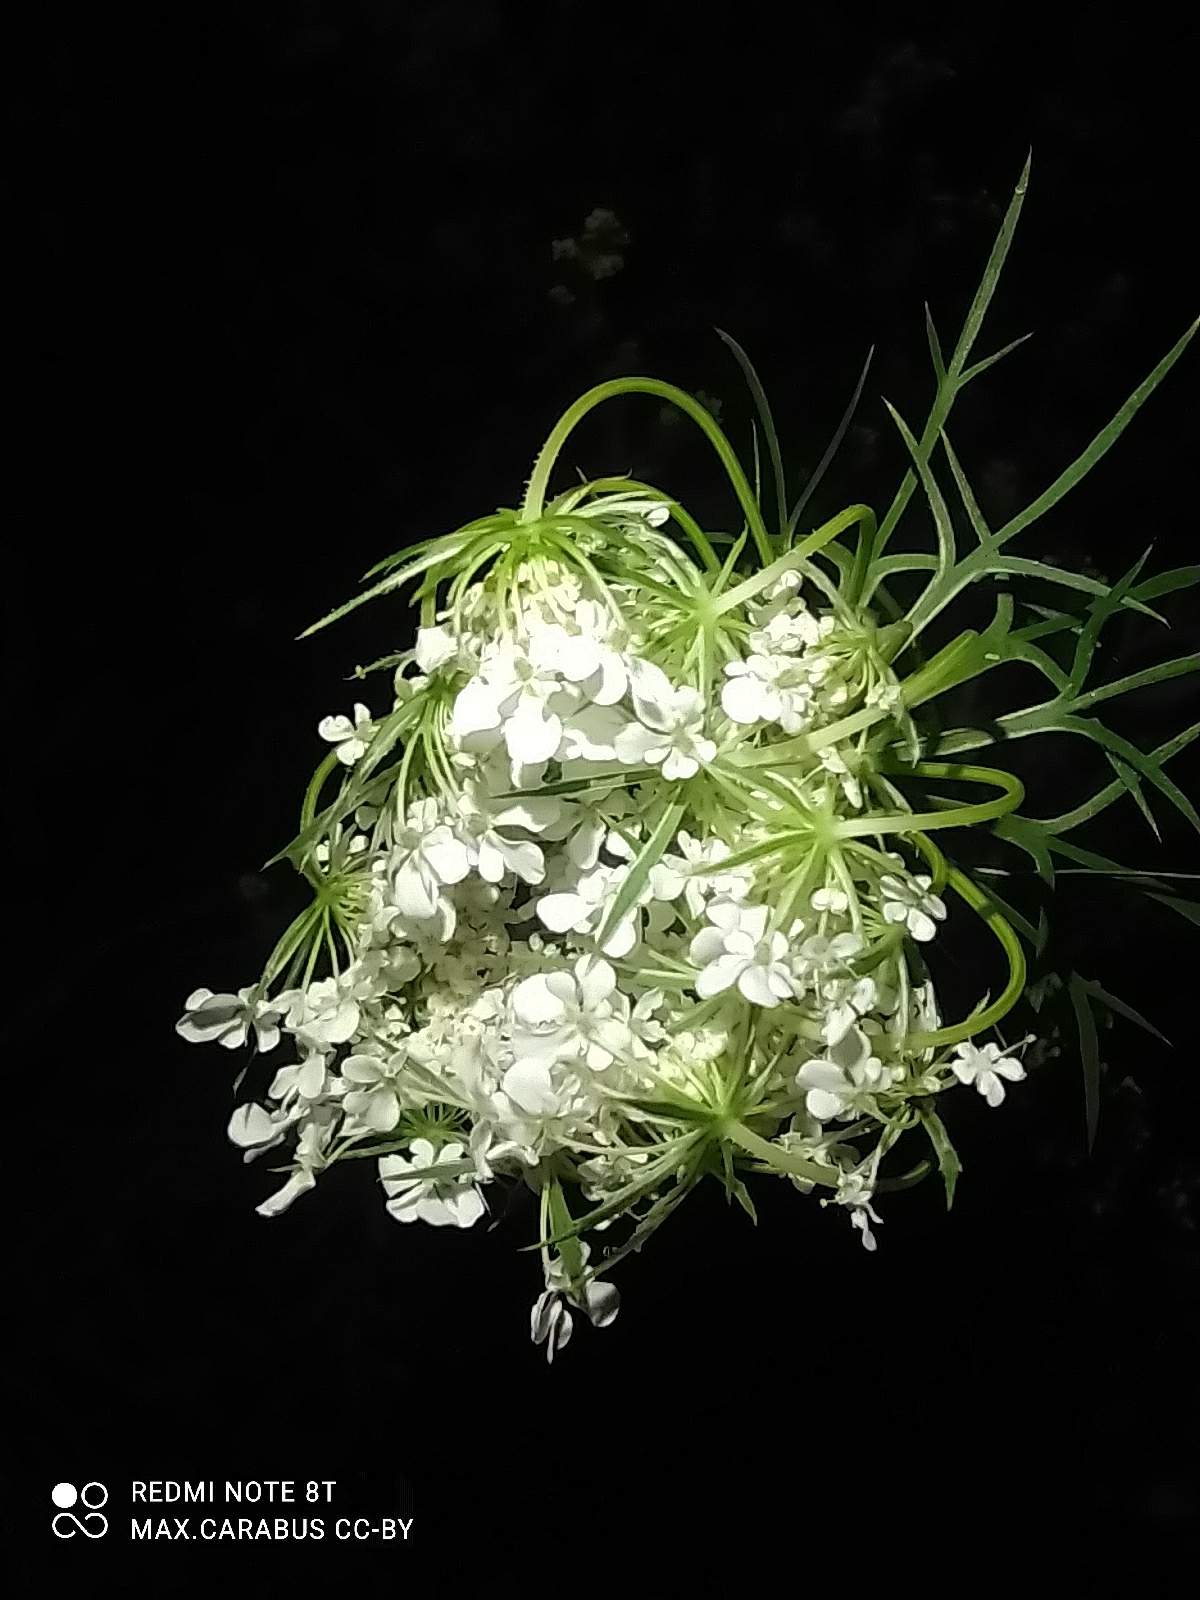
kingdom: Plantae
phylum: Tracheophyta
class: Magnoliopsida
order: Apiales
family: Apiaceae
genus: Daucus
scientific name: Daucus carota
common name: Wild carrot
